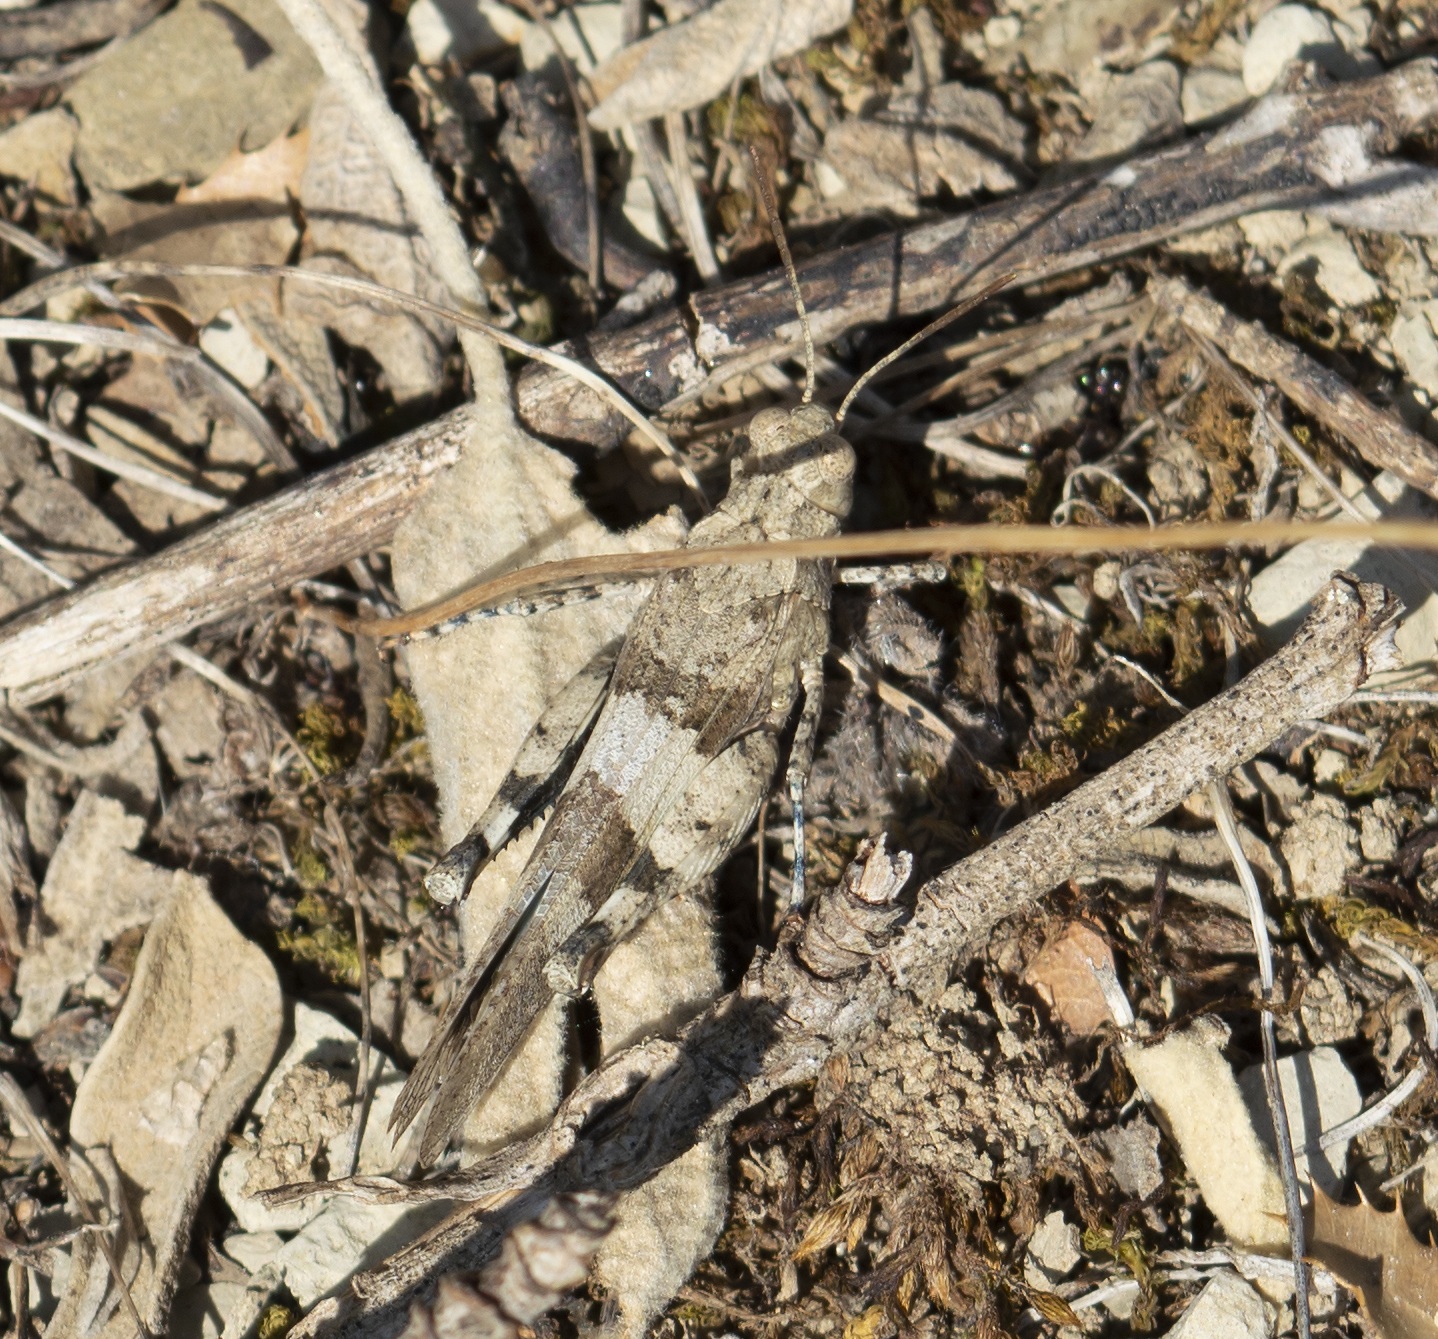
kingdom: Animalia
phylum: Arthropoda
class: Insecta
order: Orthoptera
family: Acrididae
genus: Oedipoda
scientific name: Oedipoda caerulescens
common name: Blue-winged grasshopper
